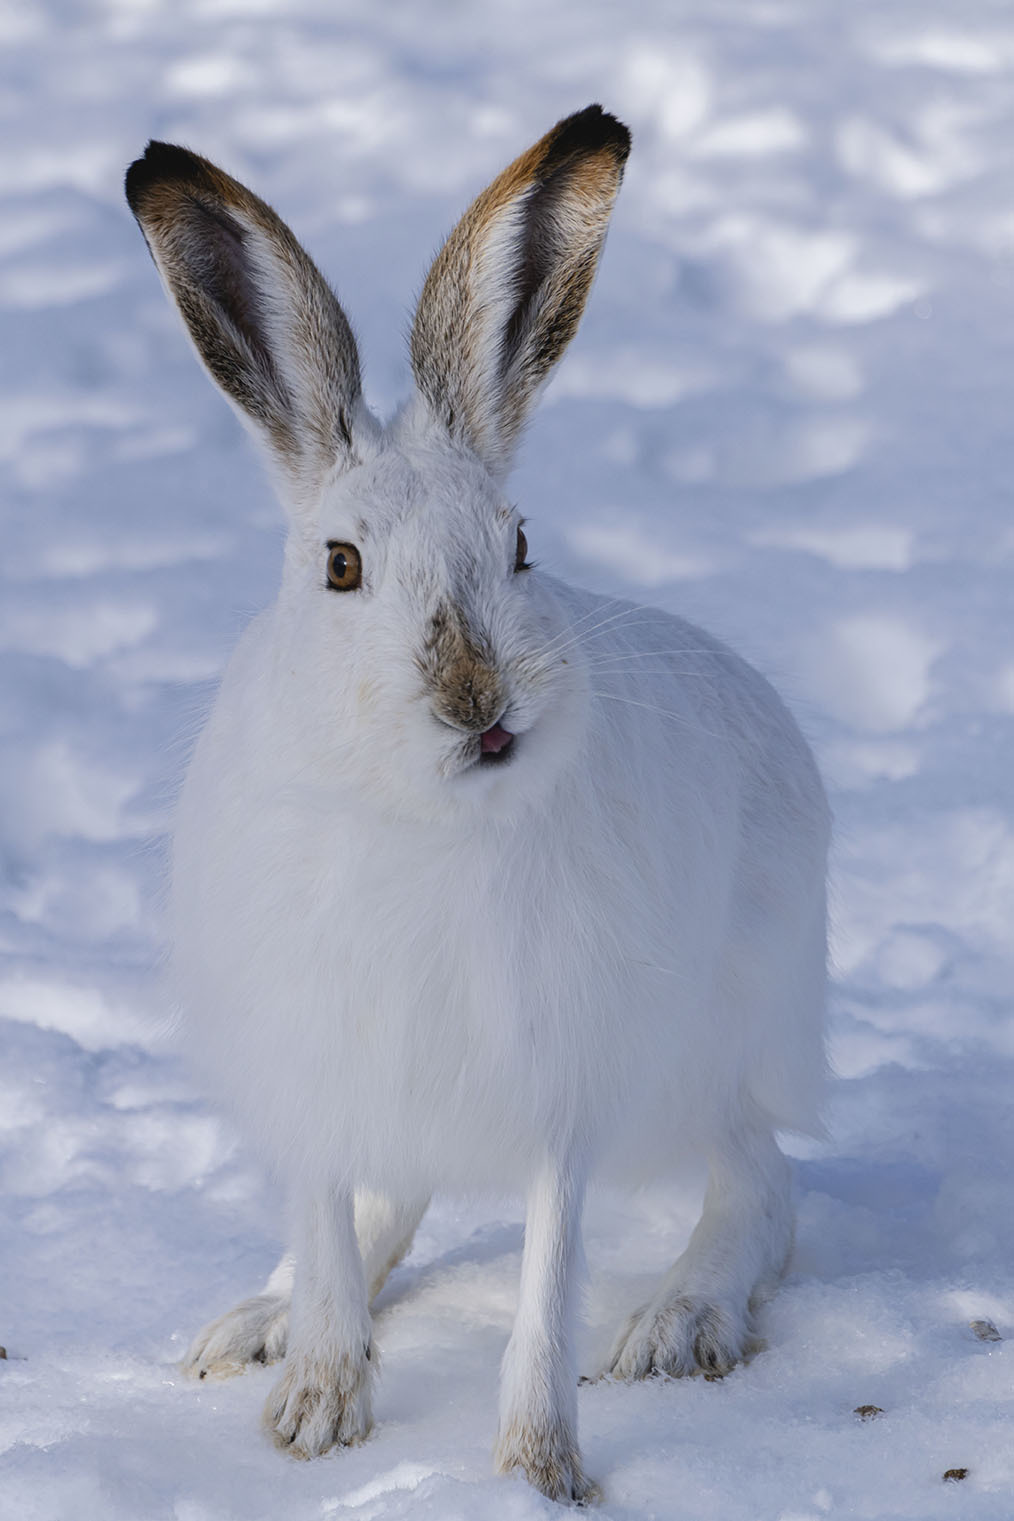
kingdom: Animalia
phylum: Chordata
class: Mammalia
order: Lagomorpha
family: Leporidae
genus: Lepus
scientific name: Lepus townsendii
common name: White-tailed jackrabbit
